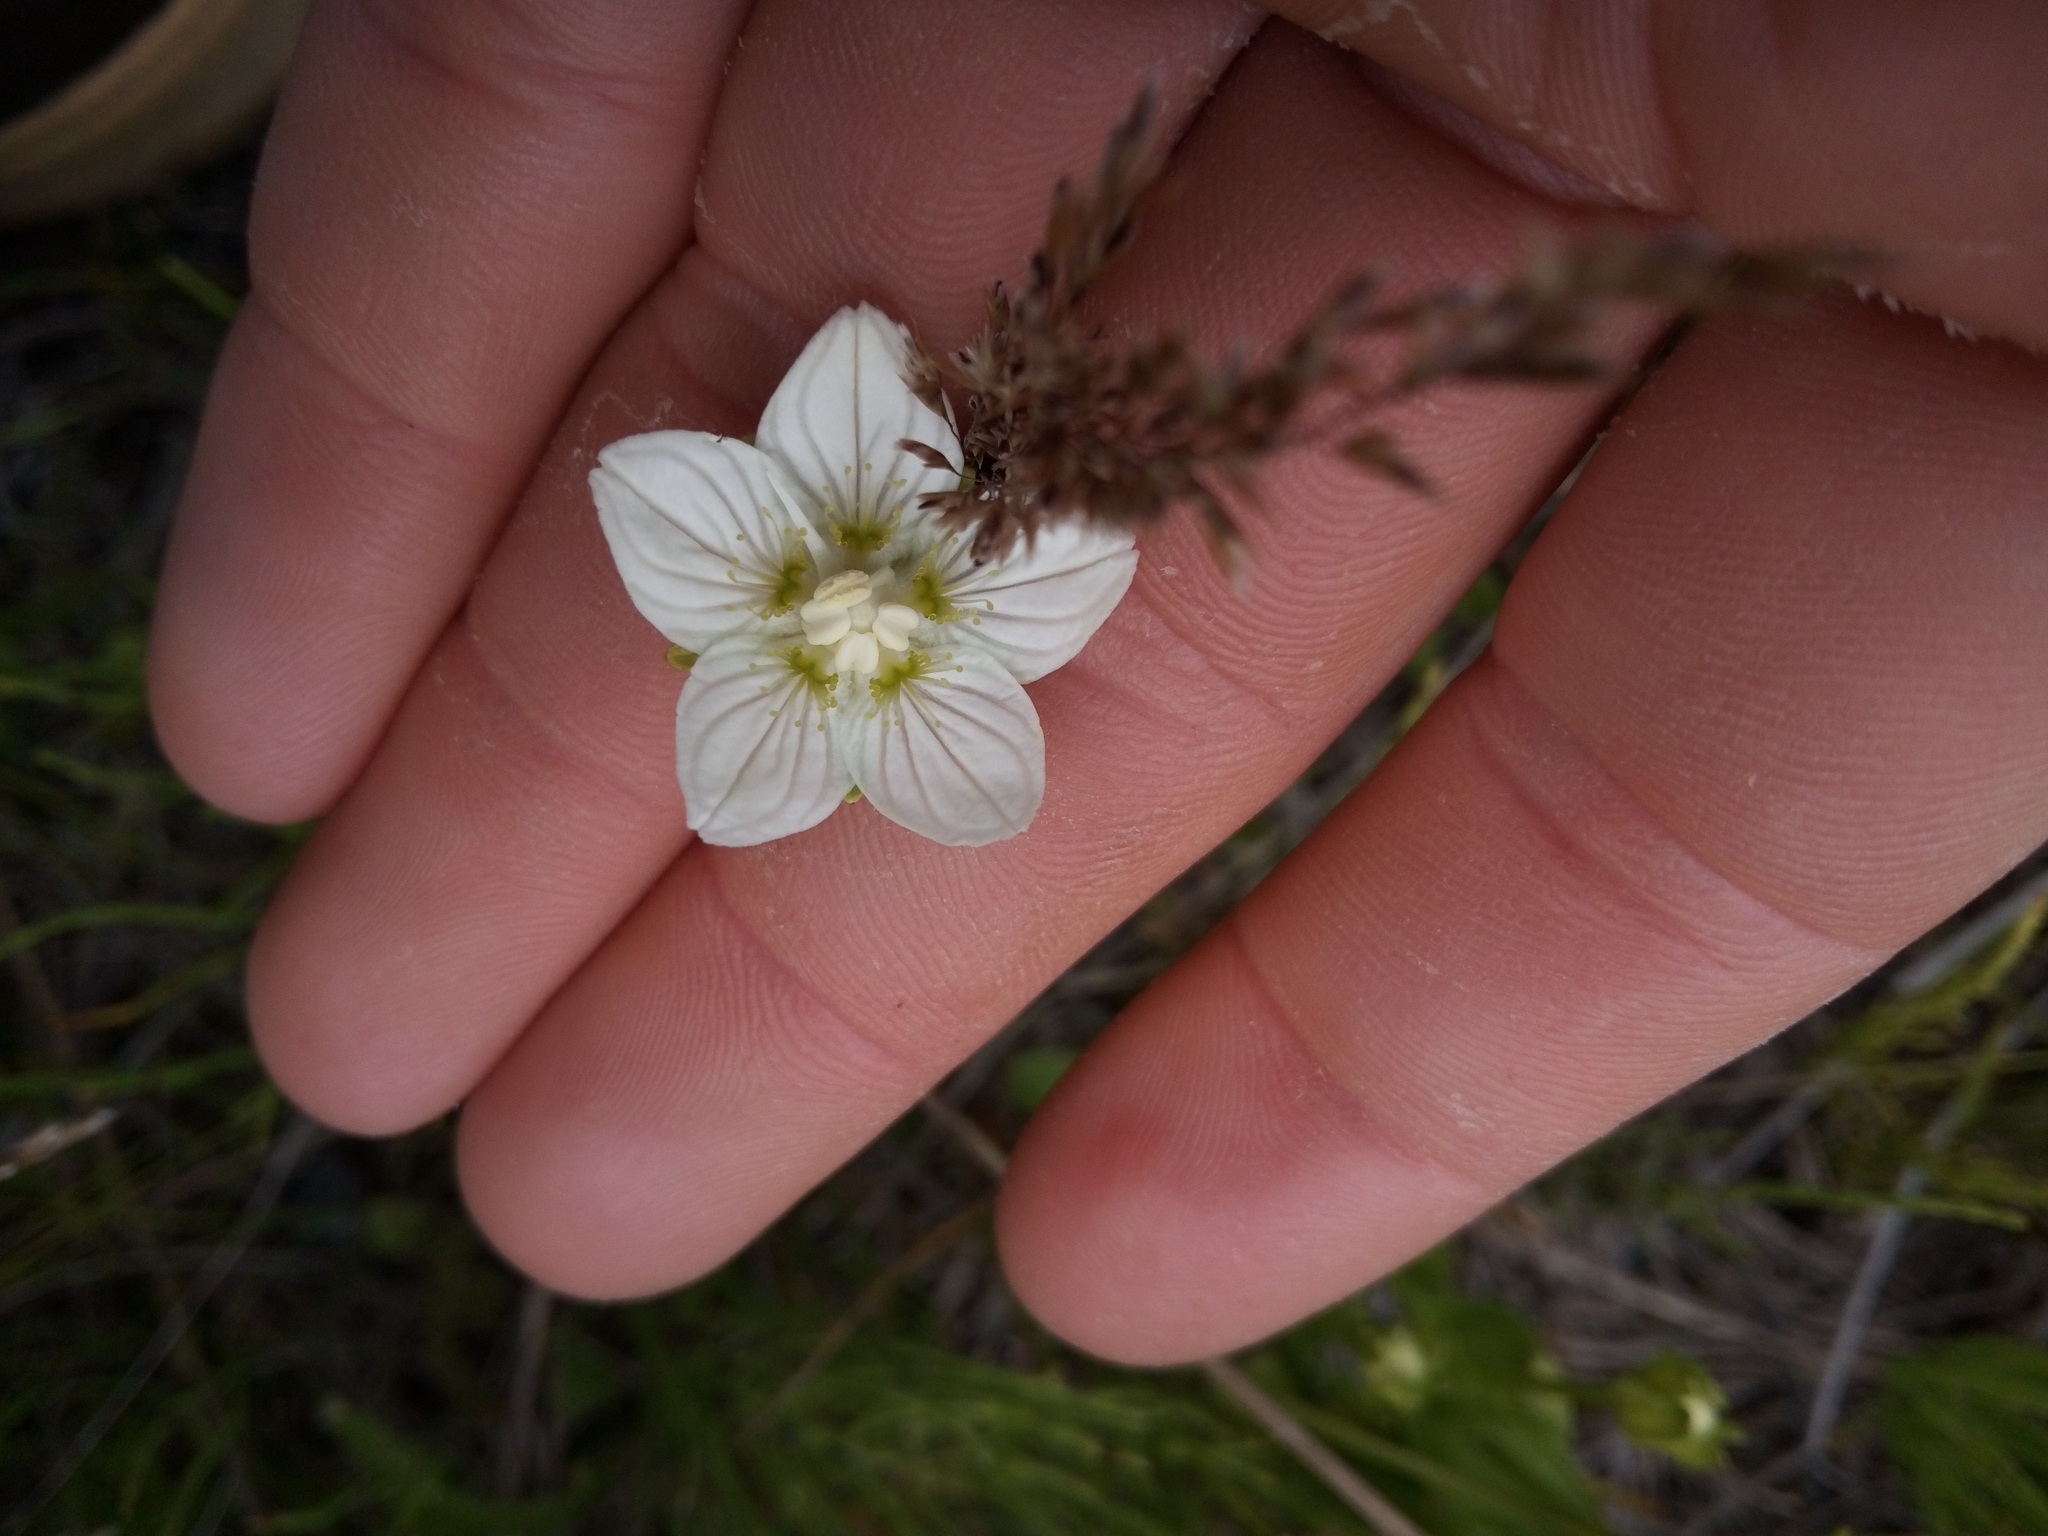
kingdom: Plantae
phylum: Tracheophyta
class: Magnoliopsida
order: Celastrales
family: Parnassiaceae
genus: Parnassia
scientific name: Parnassia palustris
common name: Grass-of-parnassus
